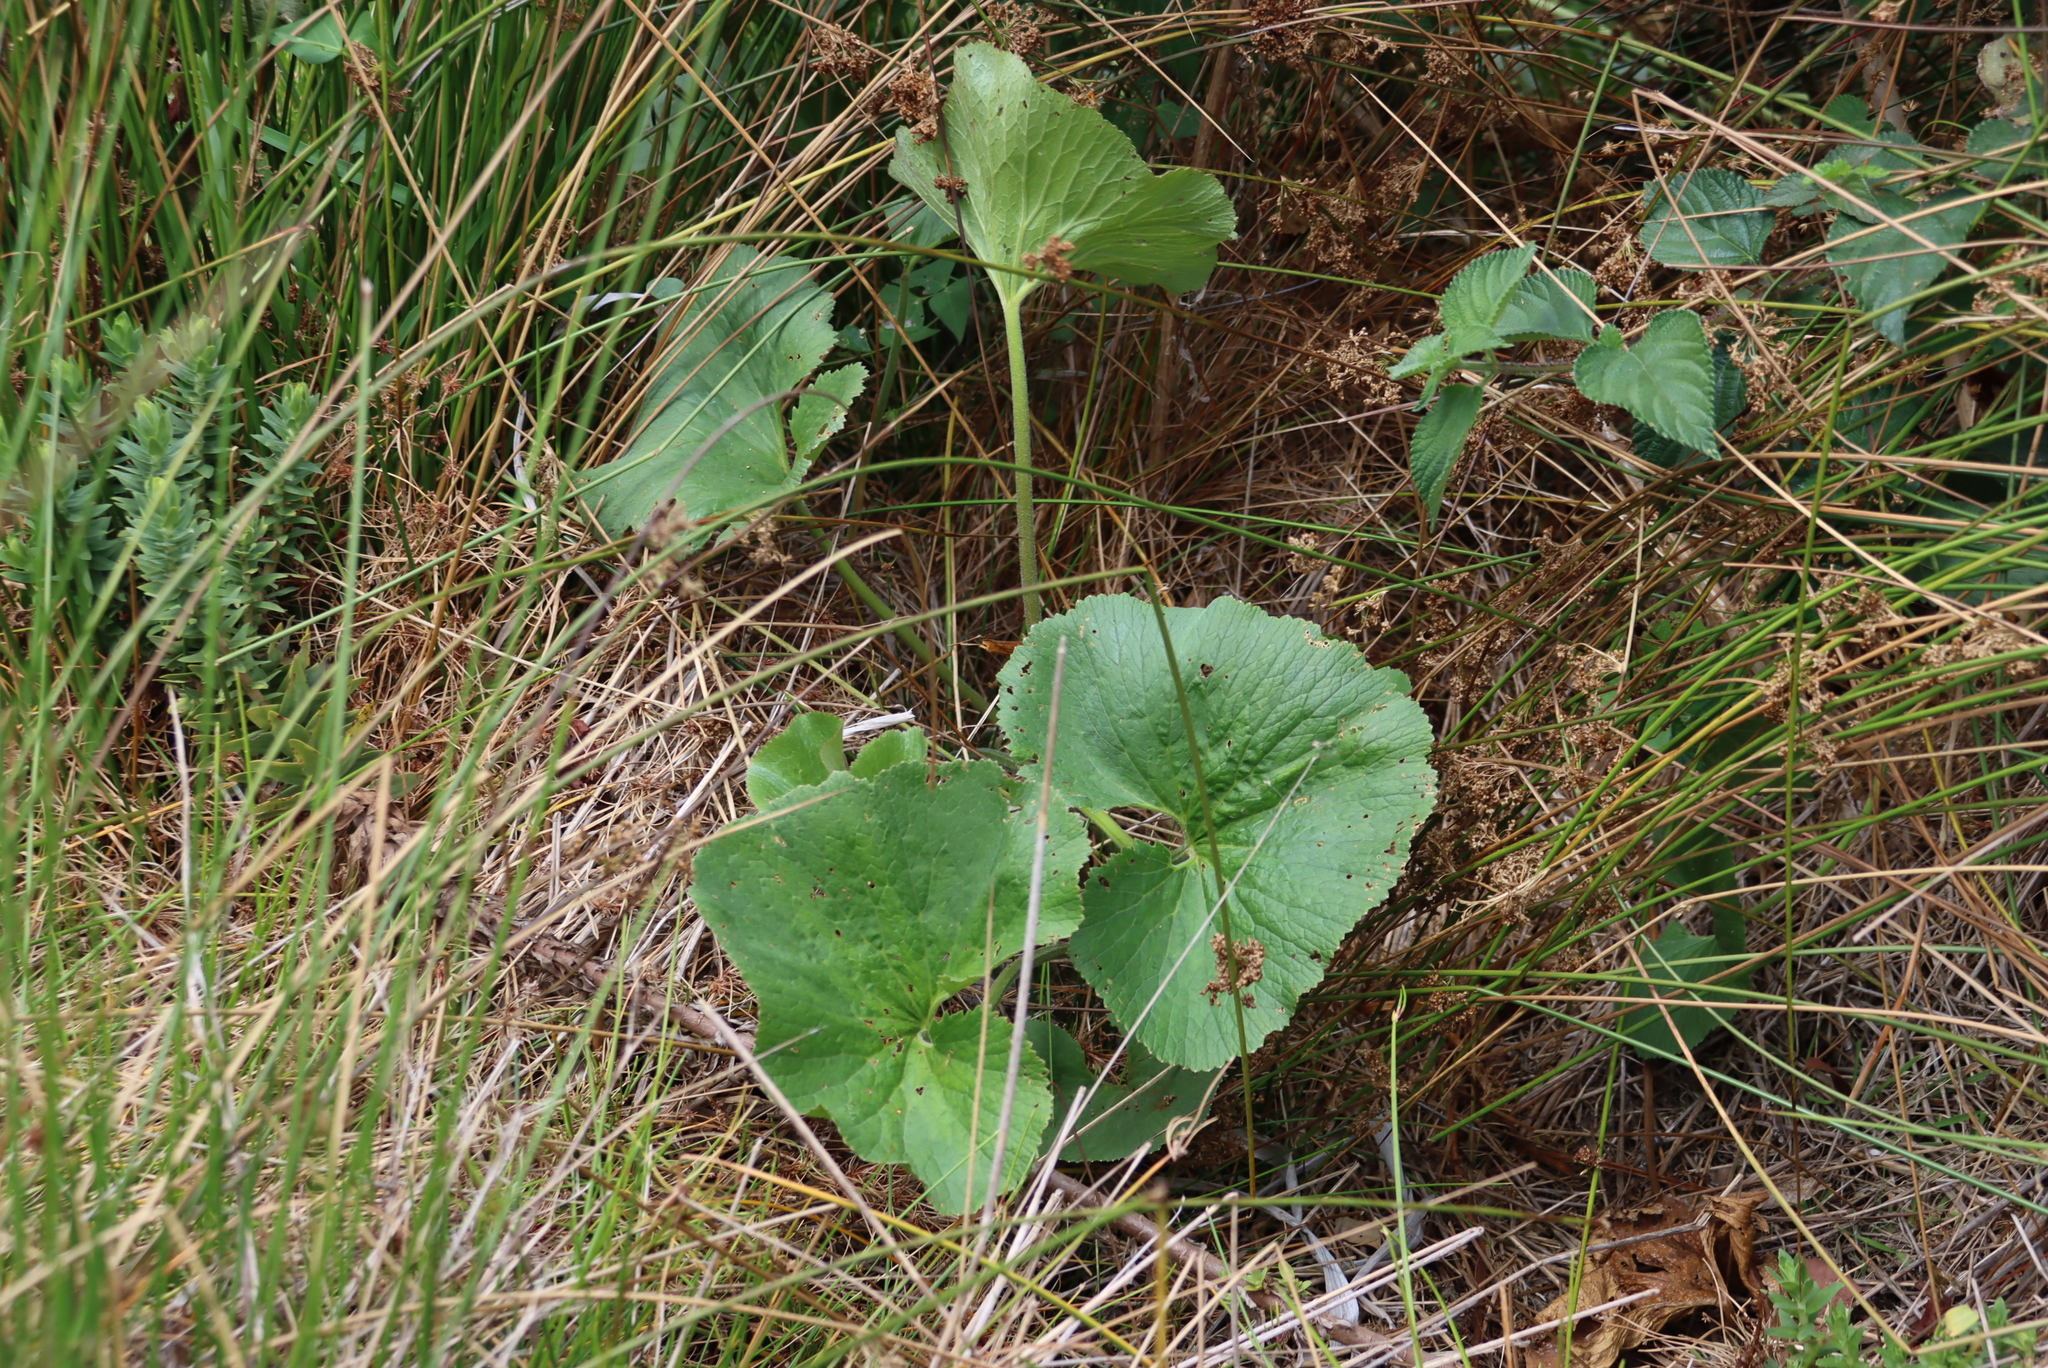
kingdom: Plantae
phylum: Tracheophyta
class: Magnoliopsida
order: Gunnerales
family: Gunneraceae
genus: Gunnera
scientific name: Gunnera perpensa
